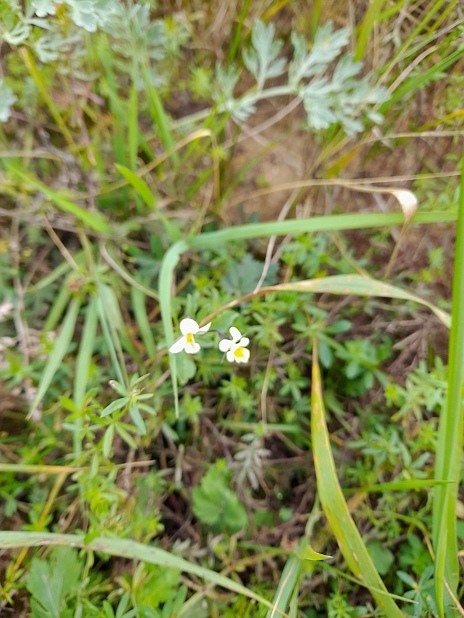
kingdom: Plantae
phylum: Tracheophyta
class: Magnoliopsida
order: Malpighiales
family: Violaceae
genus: Viola
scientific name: Viola arvensis
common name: Field pansy
